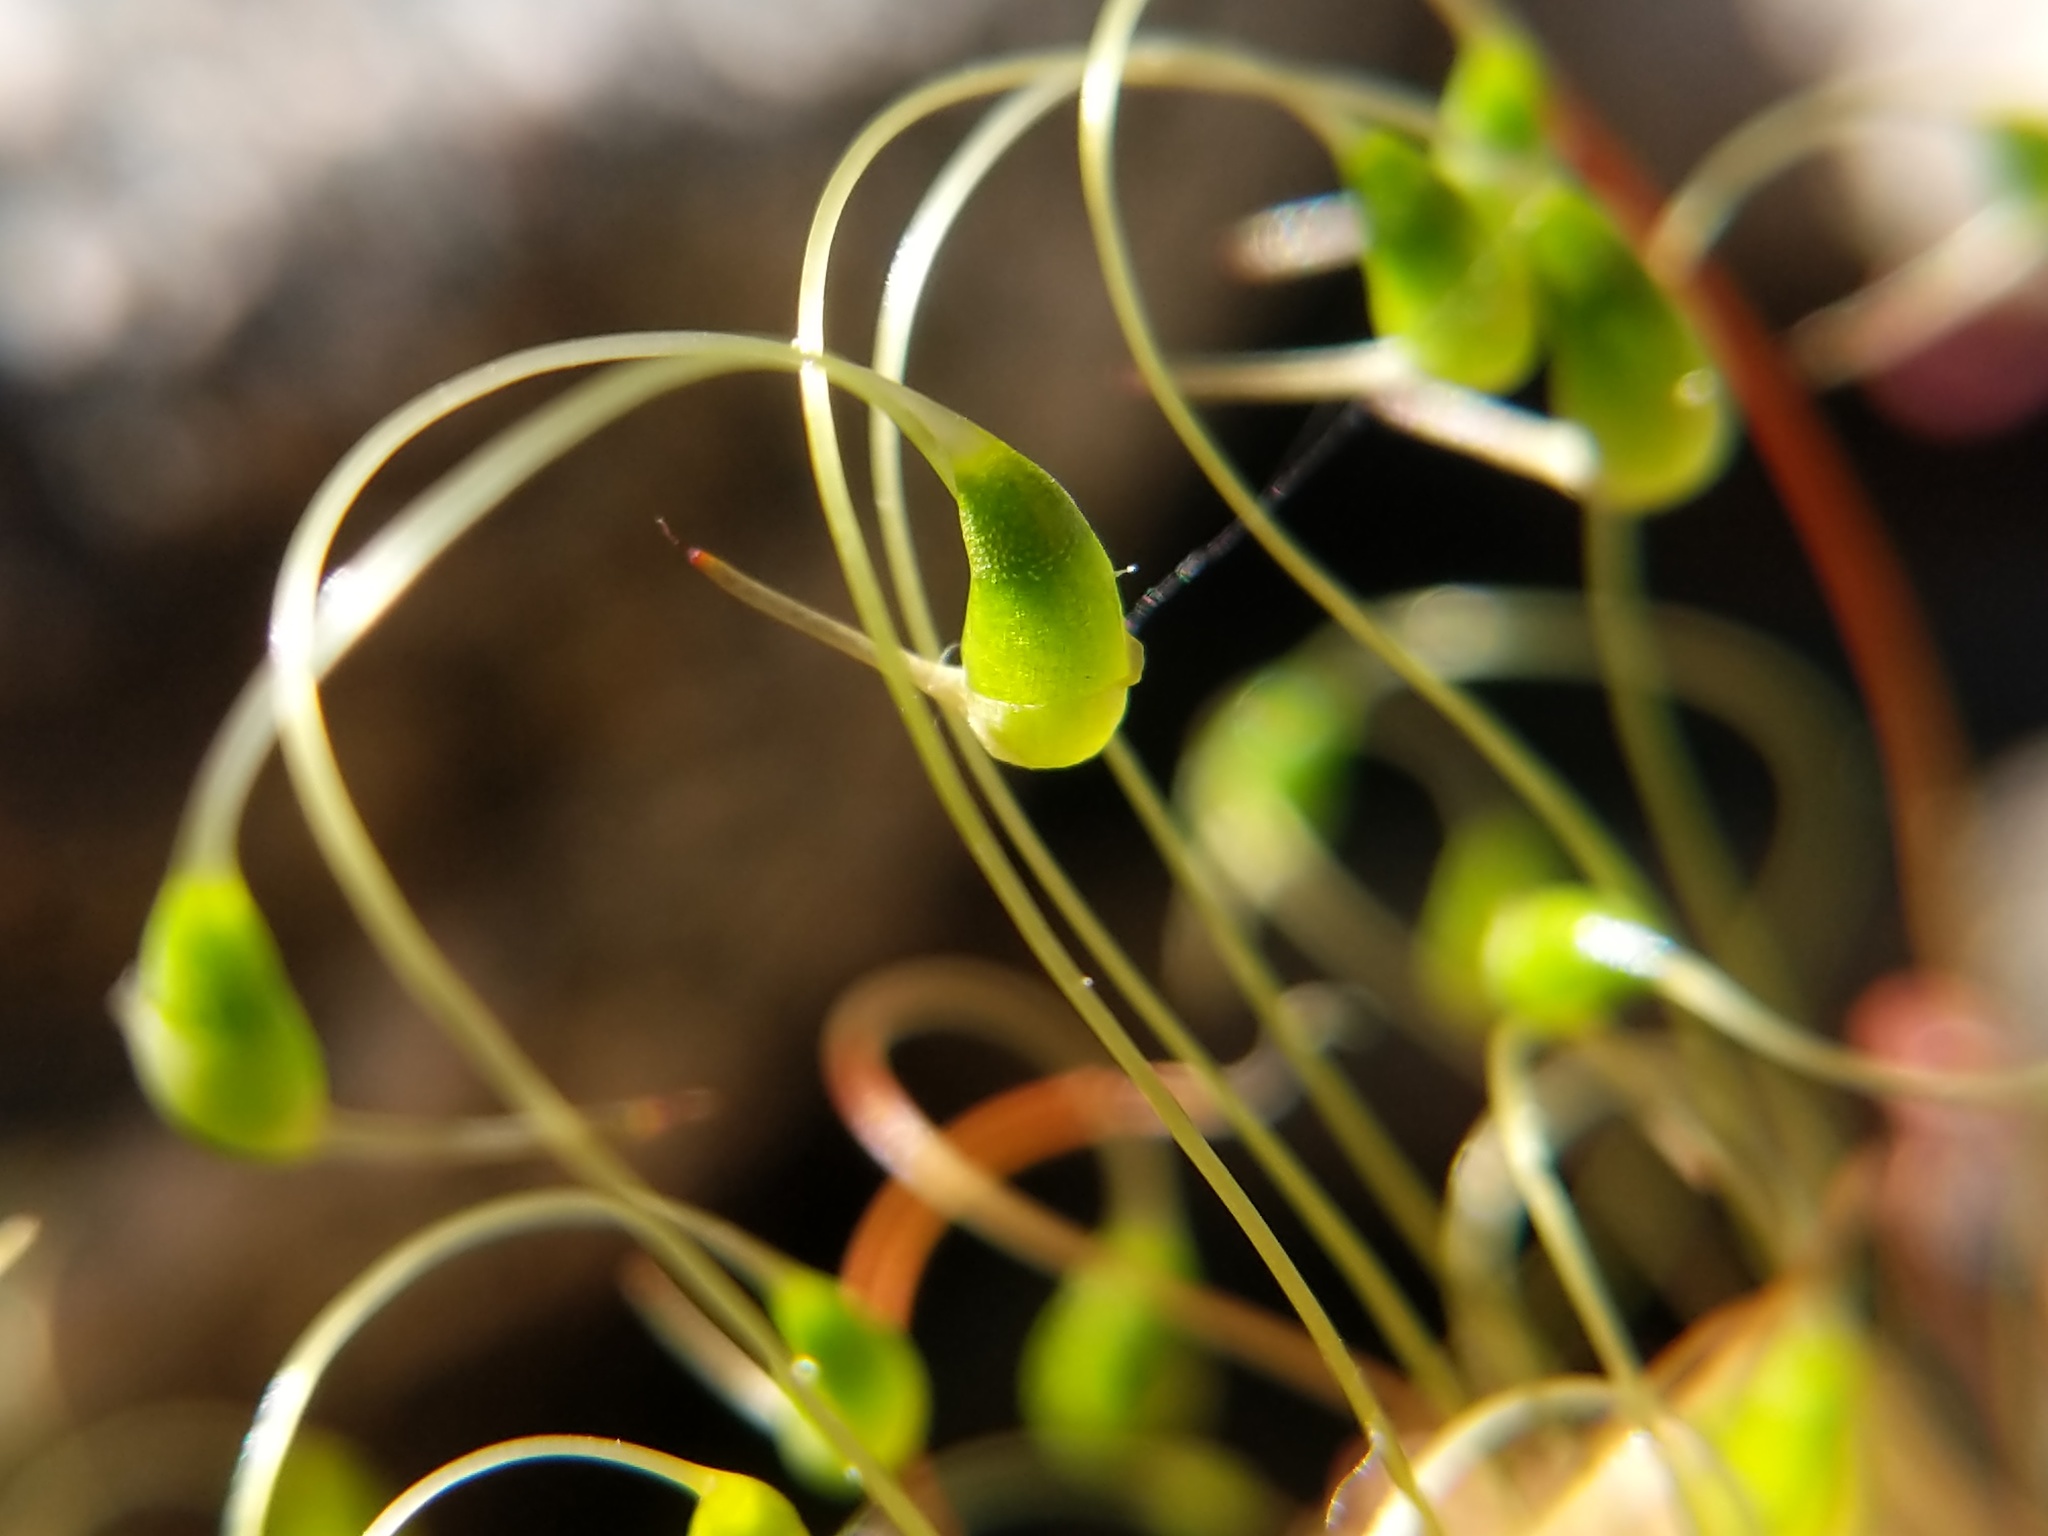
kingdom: Plantae
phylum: Bryophyta
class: Bryopsida
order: Funariales
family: Funariaceae
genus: Funaria
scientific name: Funaria hygrometrica
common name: Common cord moss
